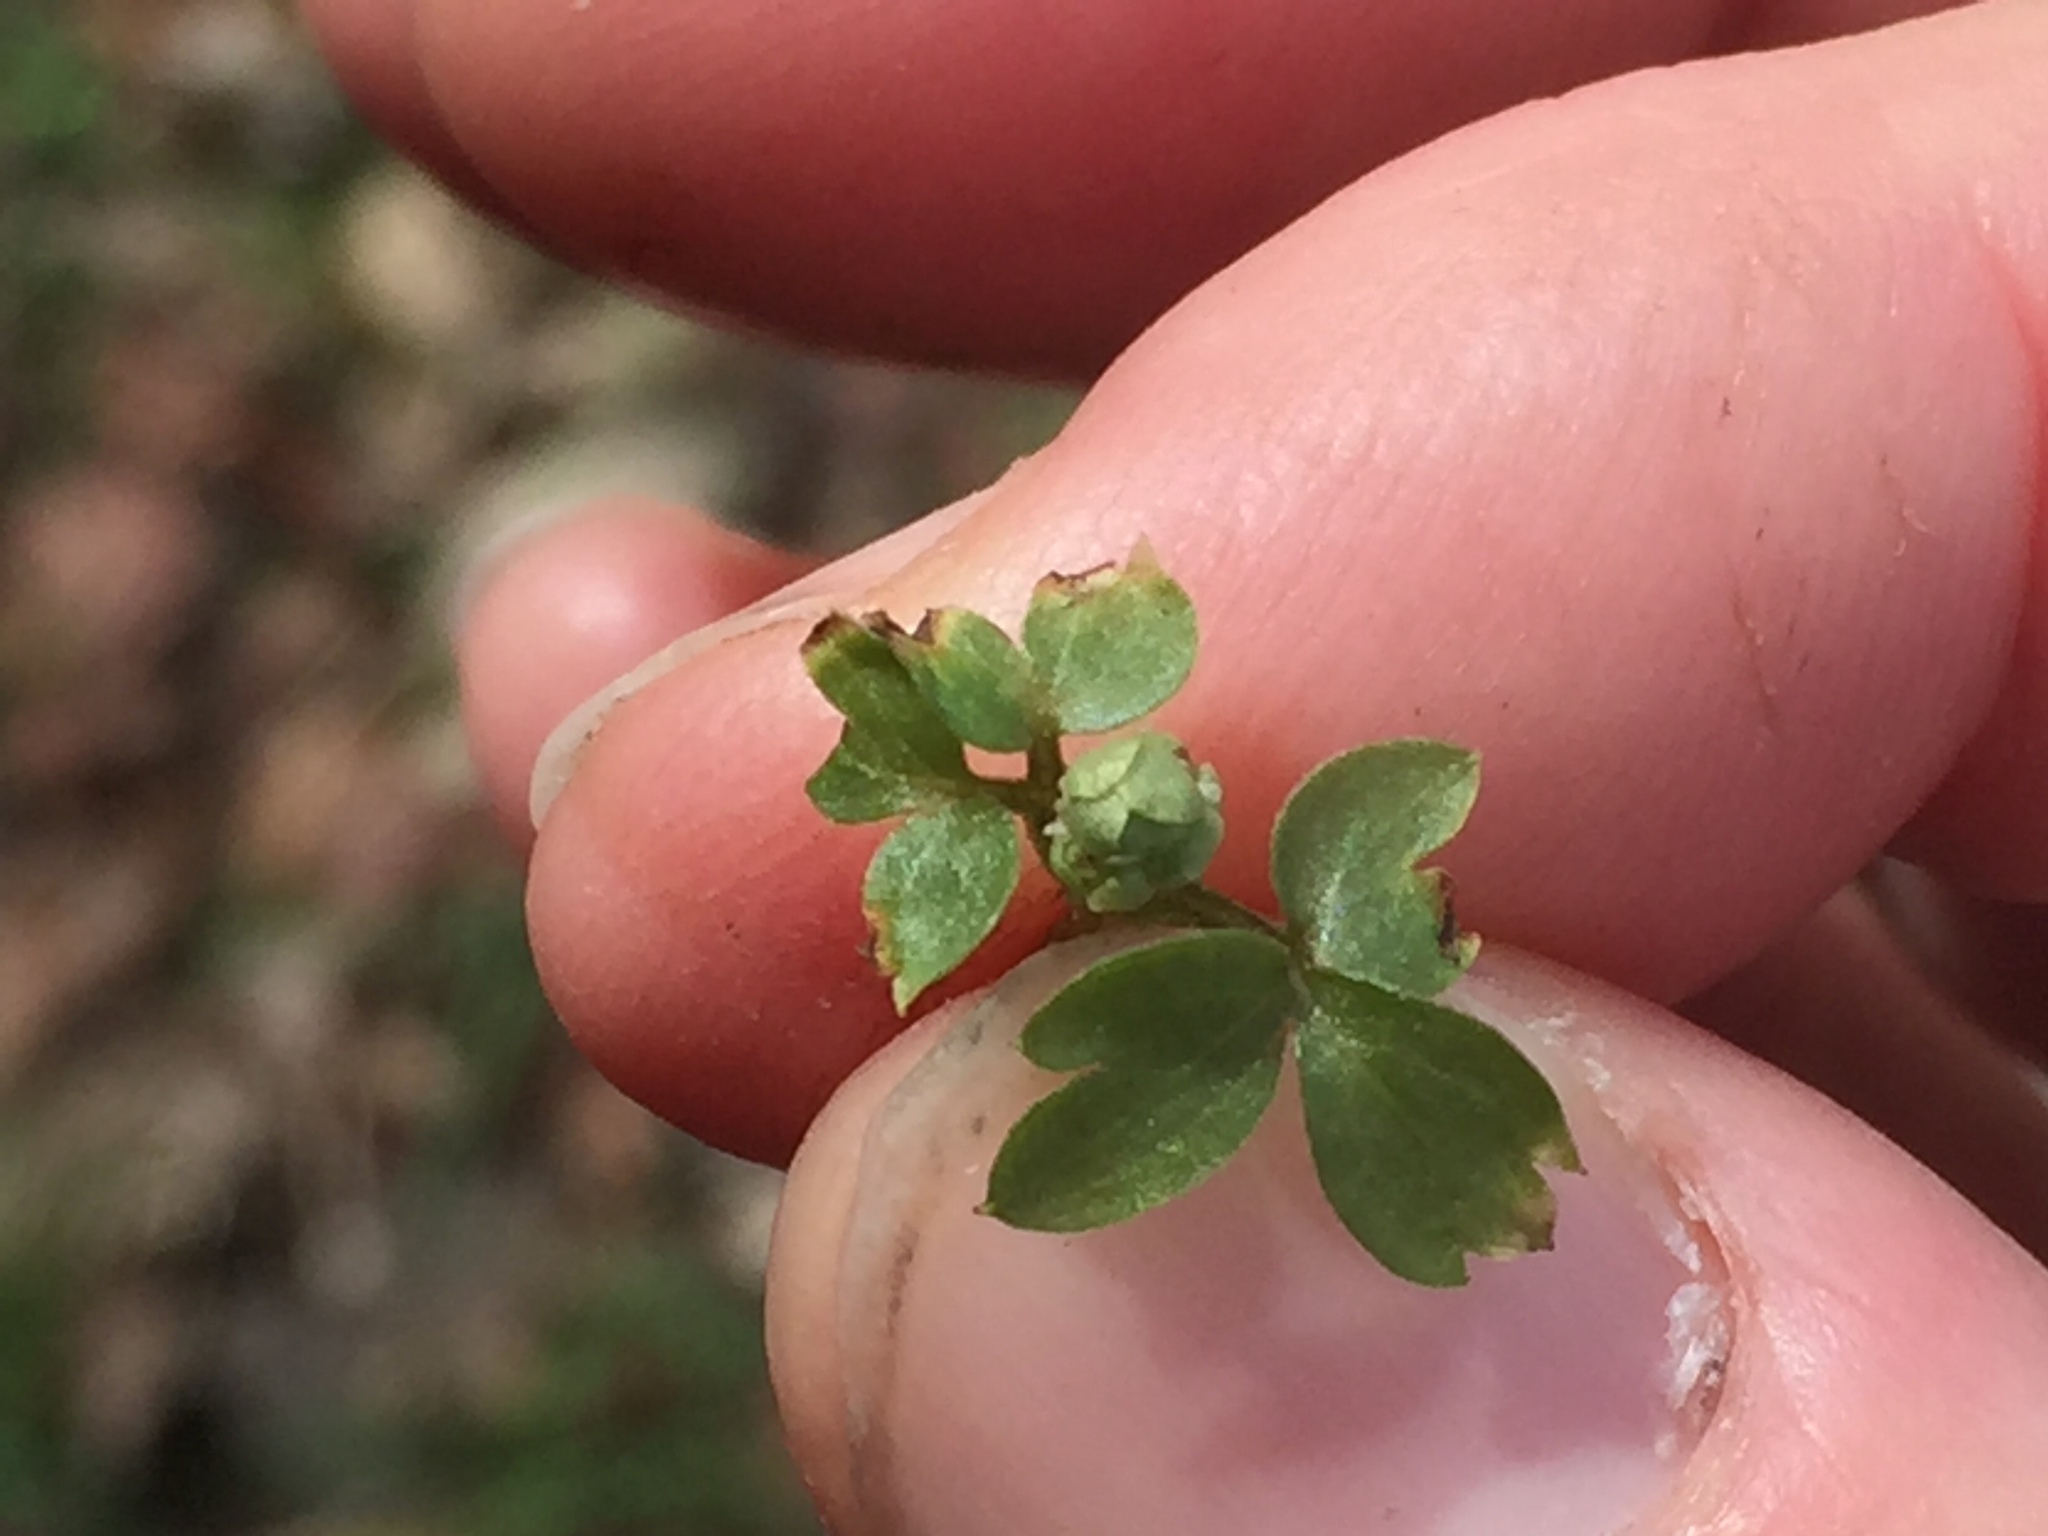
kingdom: Plantae
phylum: Tracheophyta
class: Magnoliopsida
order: Dipsacales
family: Viburnaceae
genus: Adoxa
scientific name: Adoxa moschatellina
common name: Moschatel
